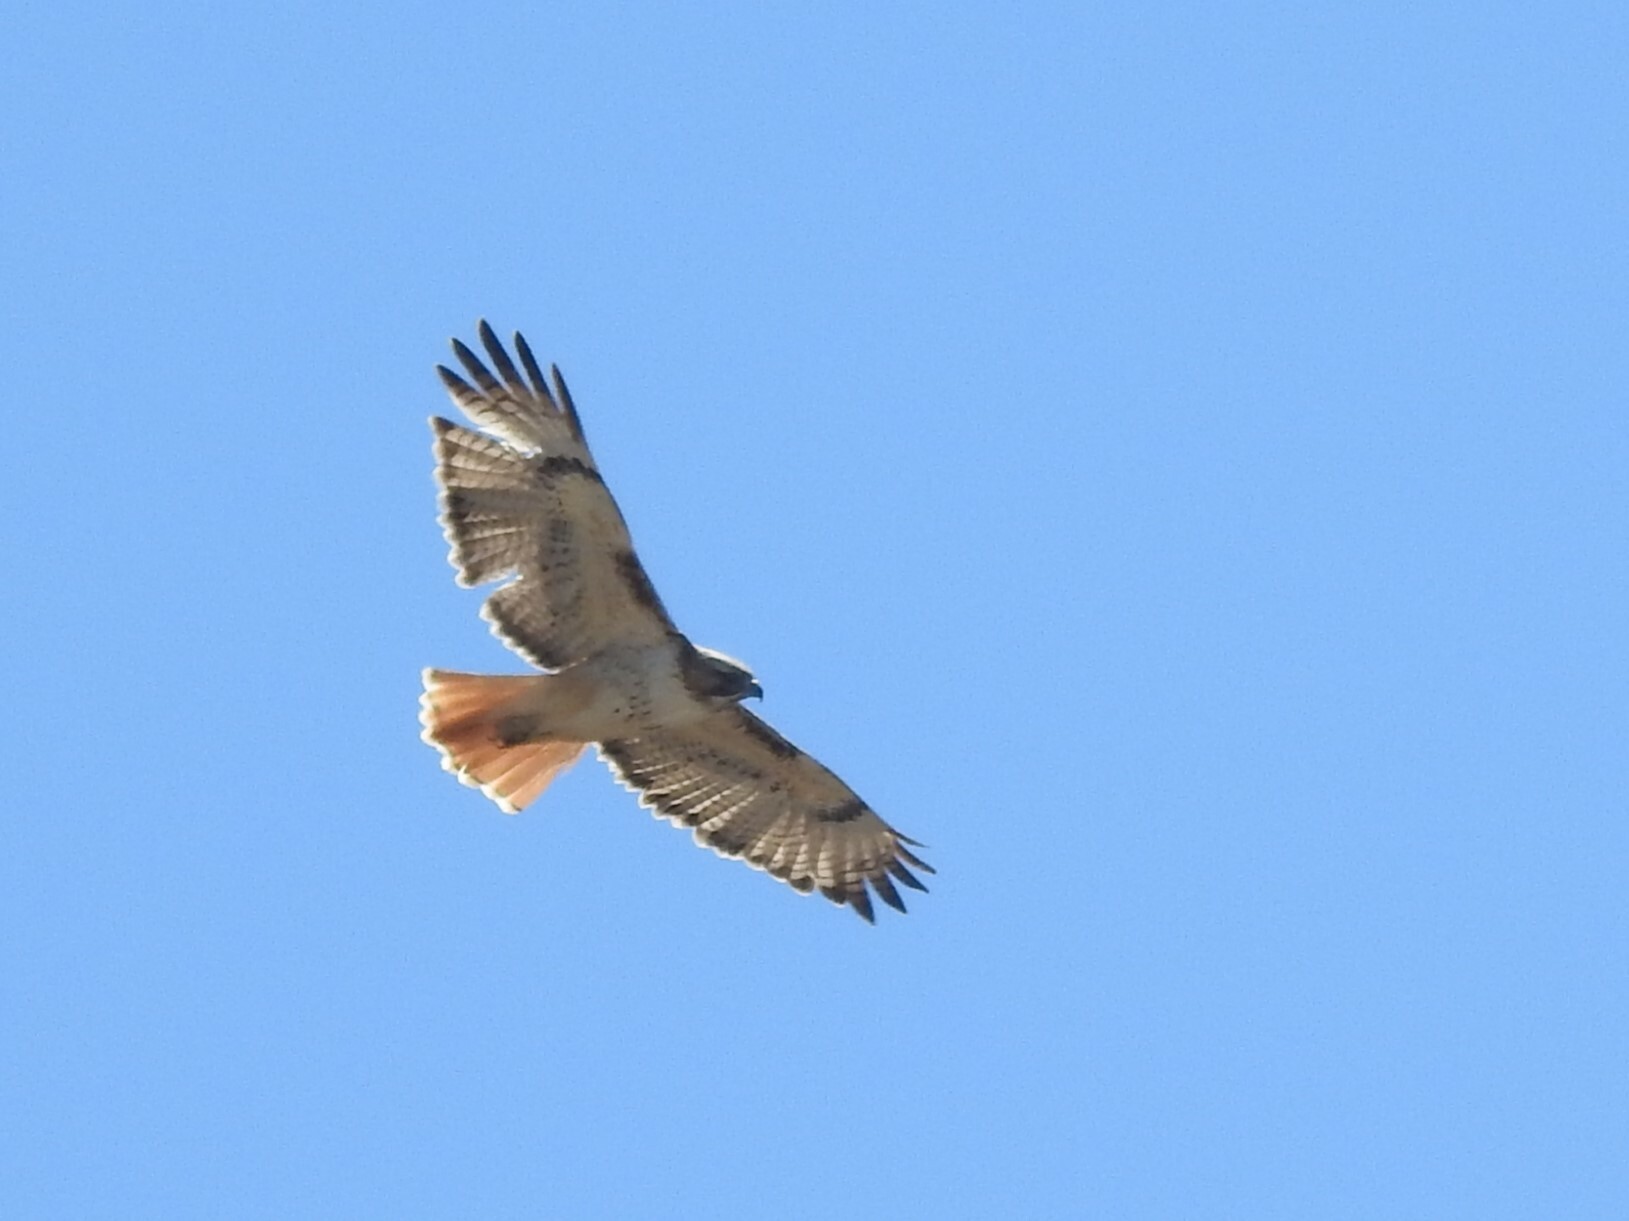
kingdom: Animalia
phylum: Chordata
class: Aves
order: Accipitriformes
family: Accipitridae
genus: Buteo
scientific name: Buteo jamaicensis
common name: Red-tailed hawk
